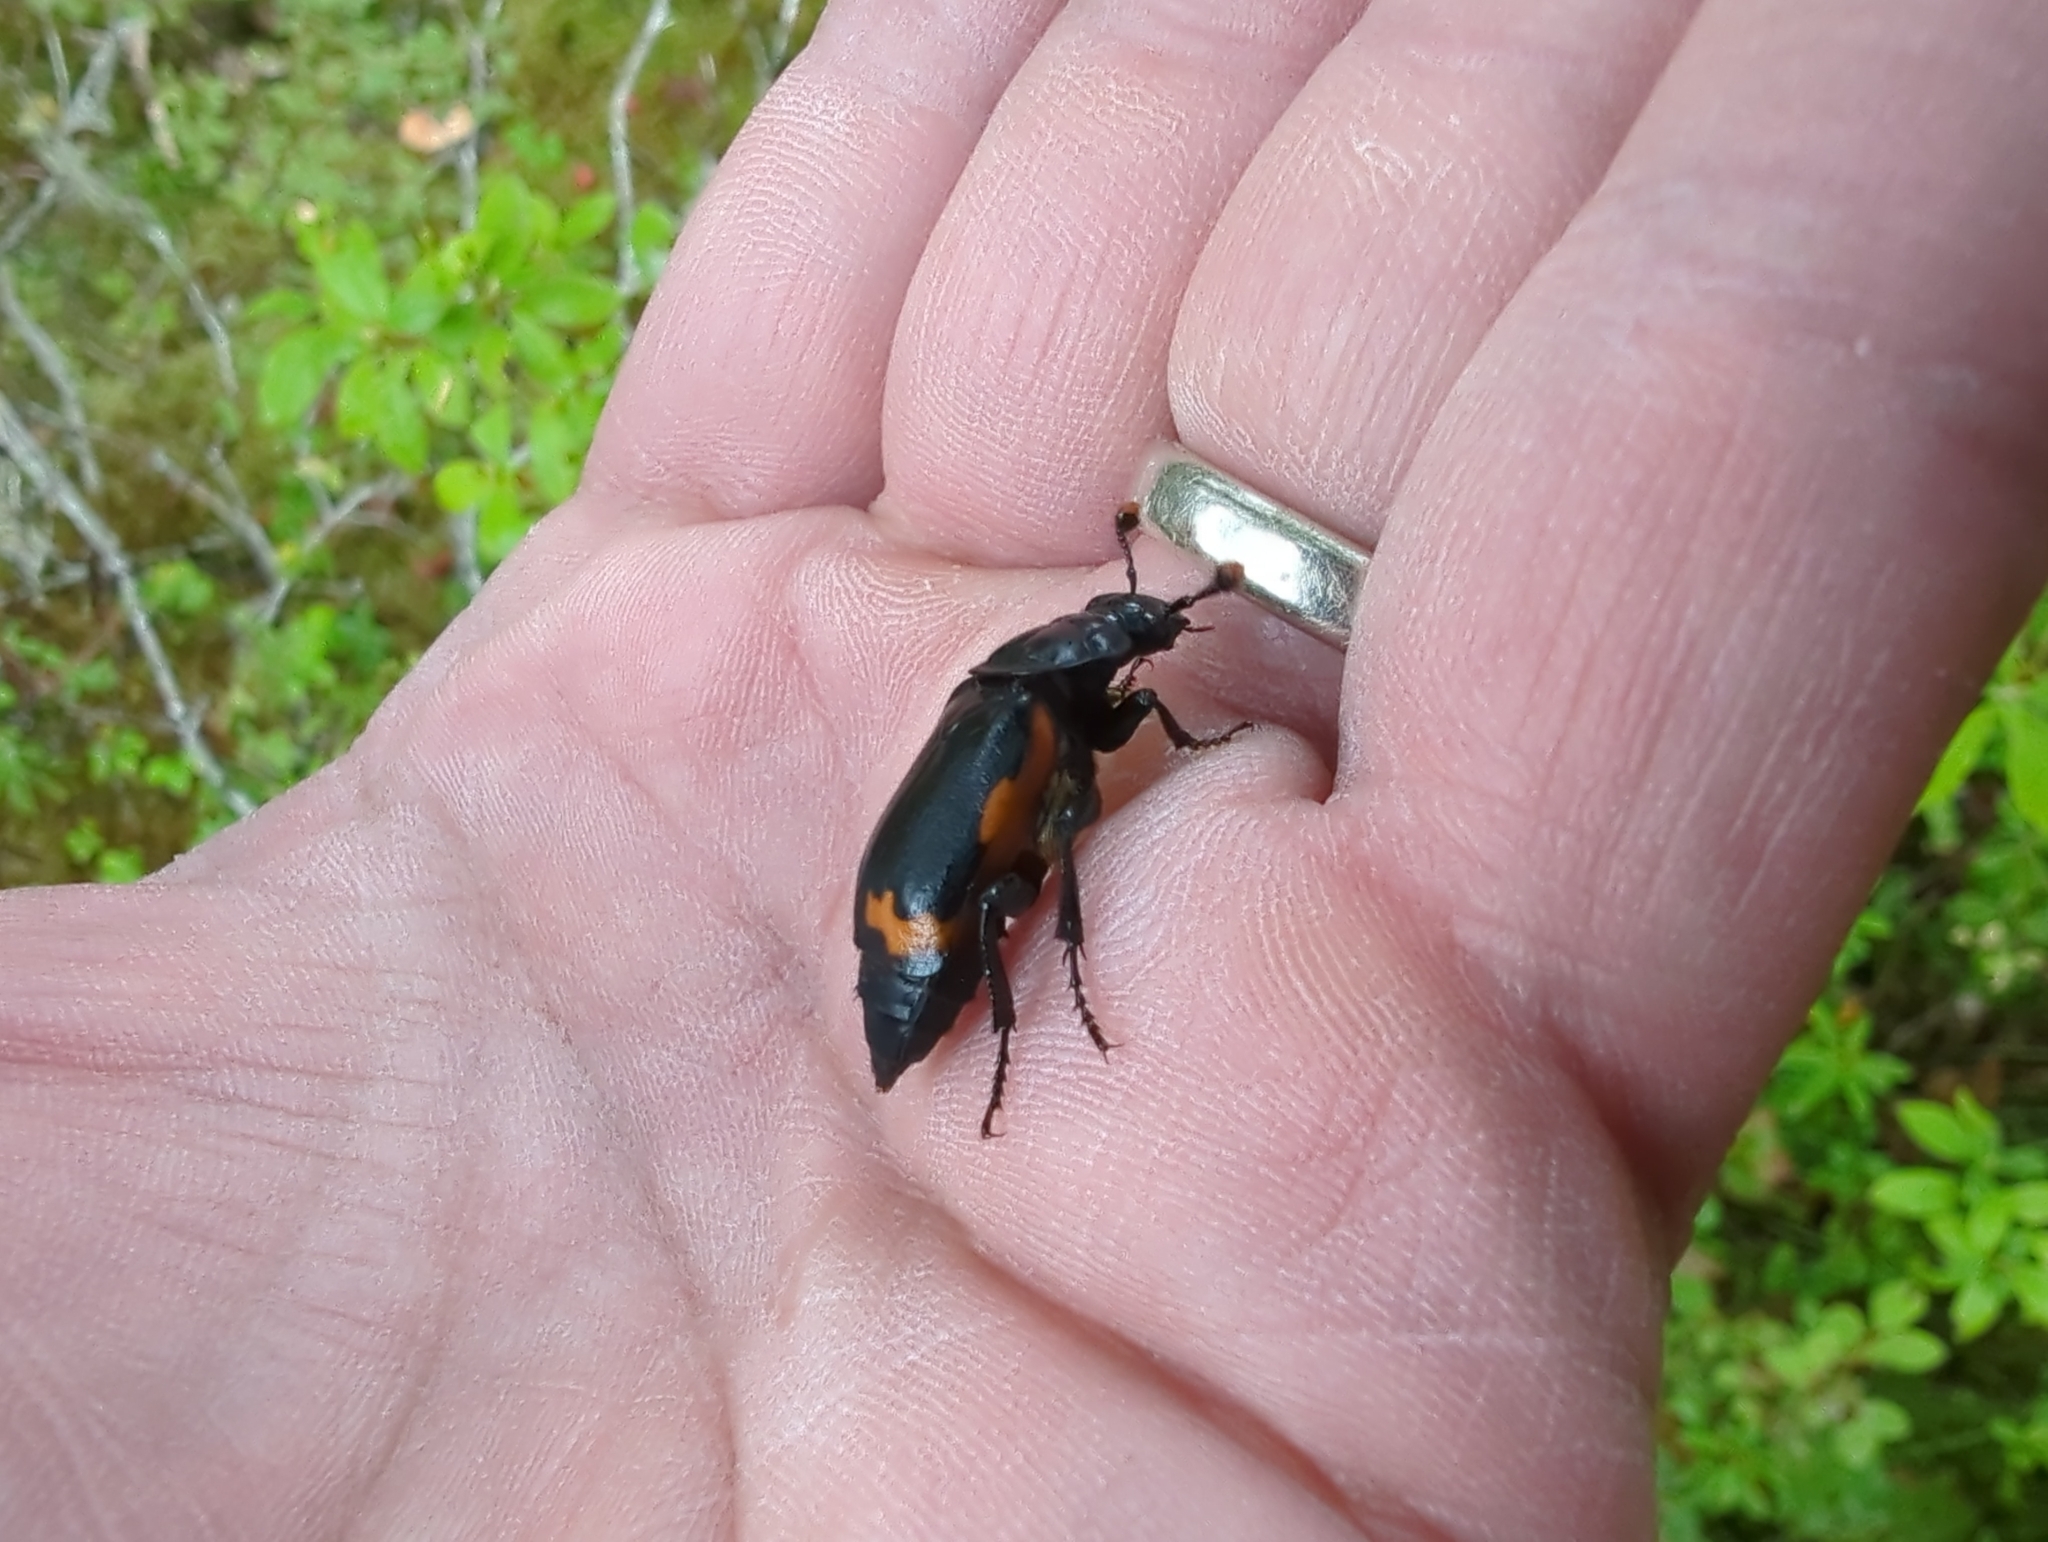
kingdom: Animalia
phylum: Arthropoda
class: Insecta
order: Coleoptera
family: Staphylinidae
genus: Nicrophorus
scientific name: Nicrophorus investigator
